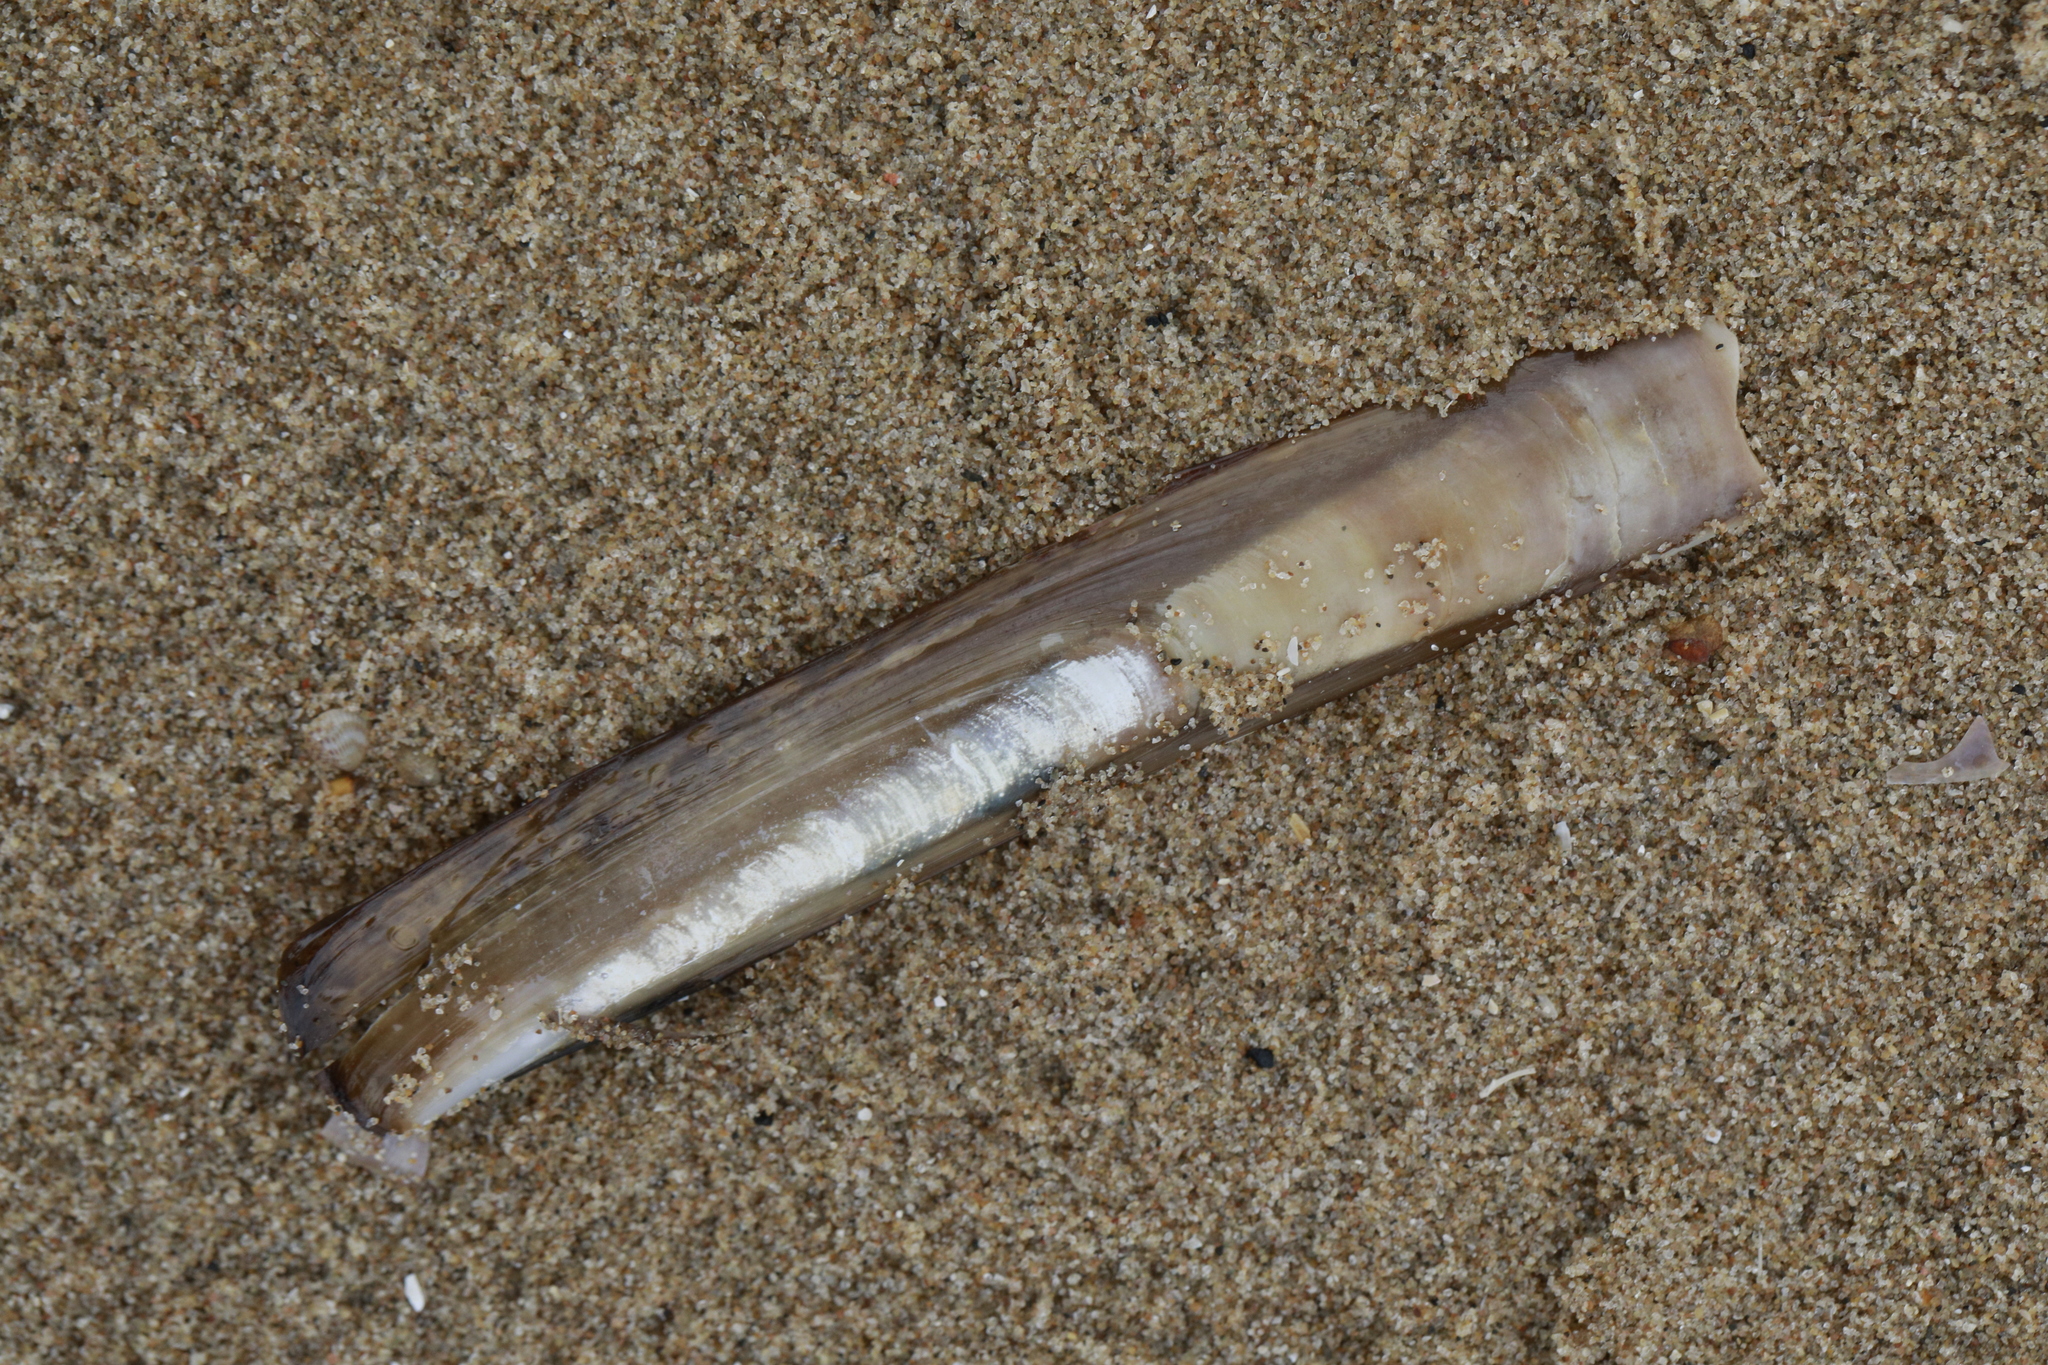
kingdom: Animalia
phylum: Mollusca
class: Bivalvia
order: Adapedonta
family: Pharidae
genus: Ensis
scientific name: Ensis leei
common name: American jack knife clam
